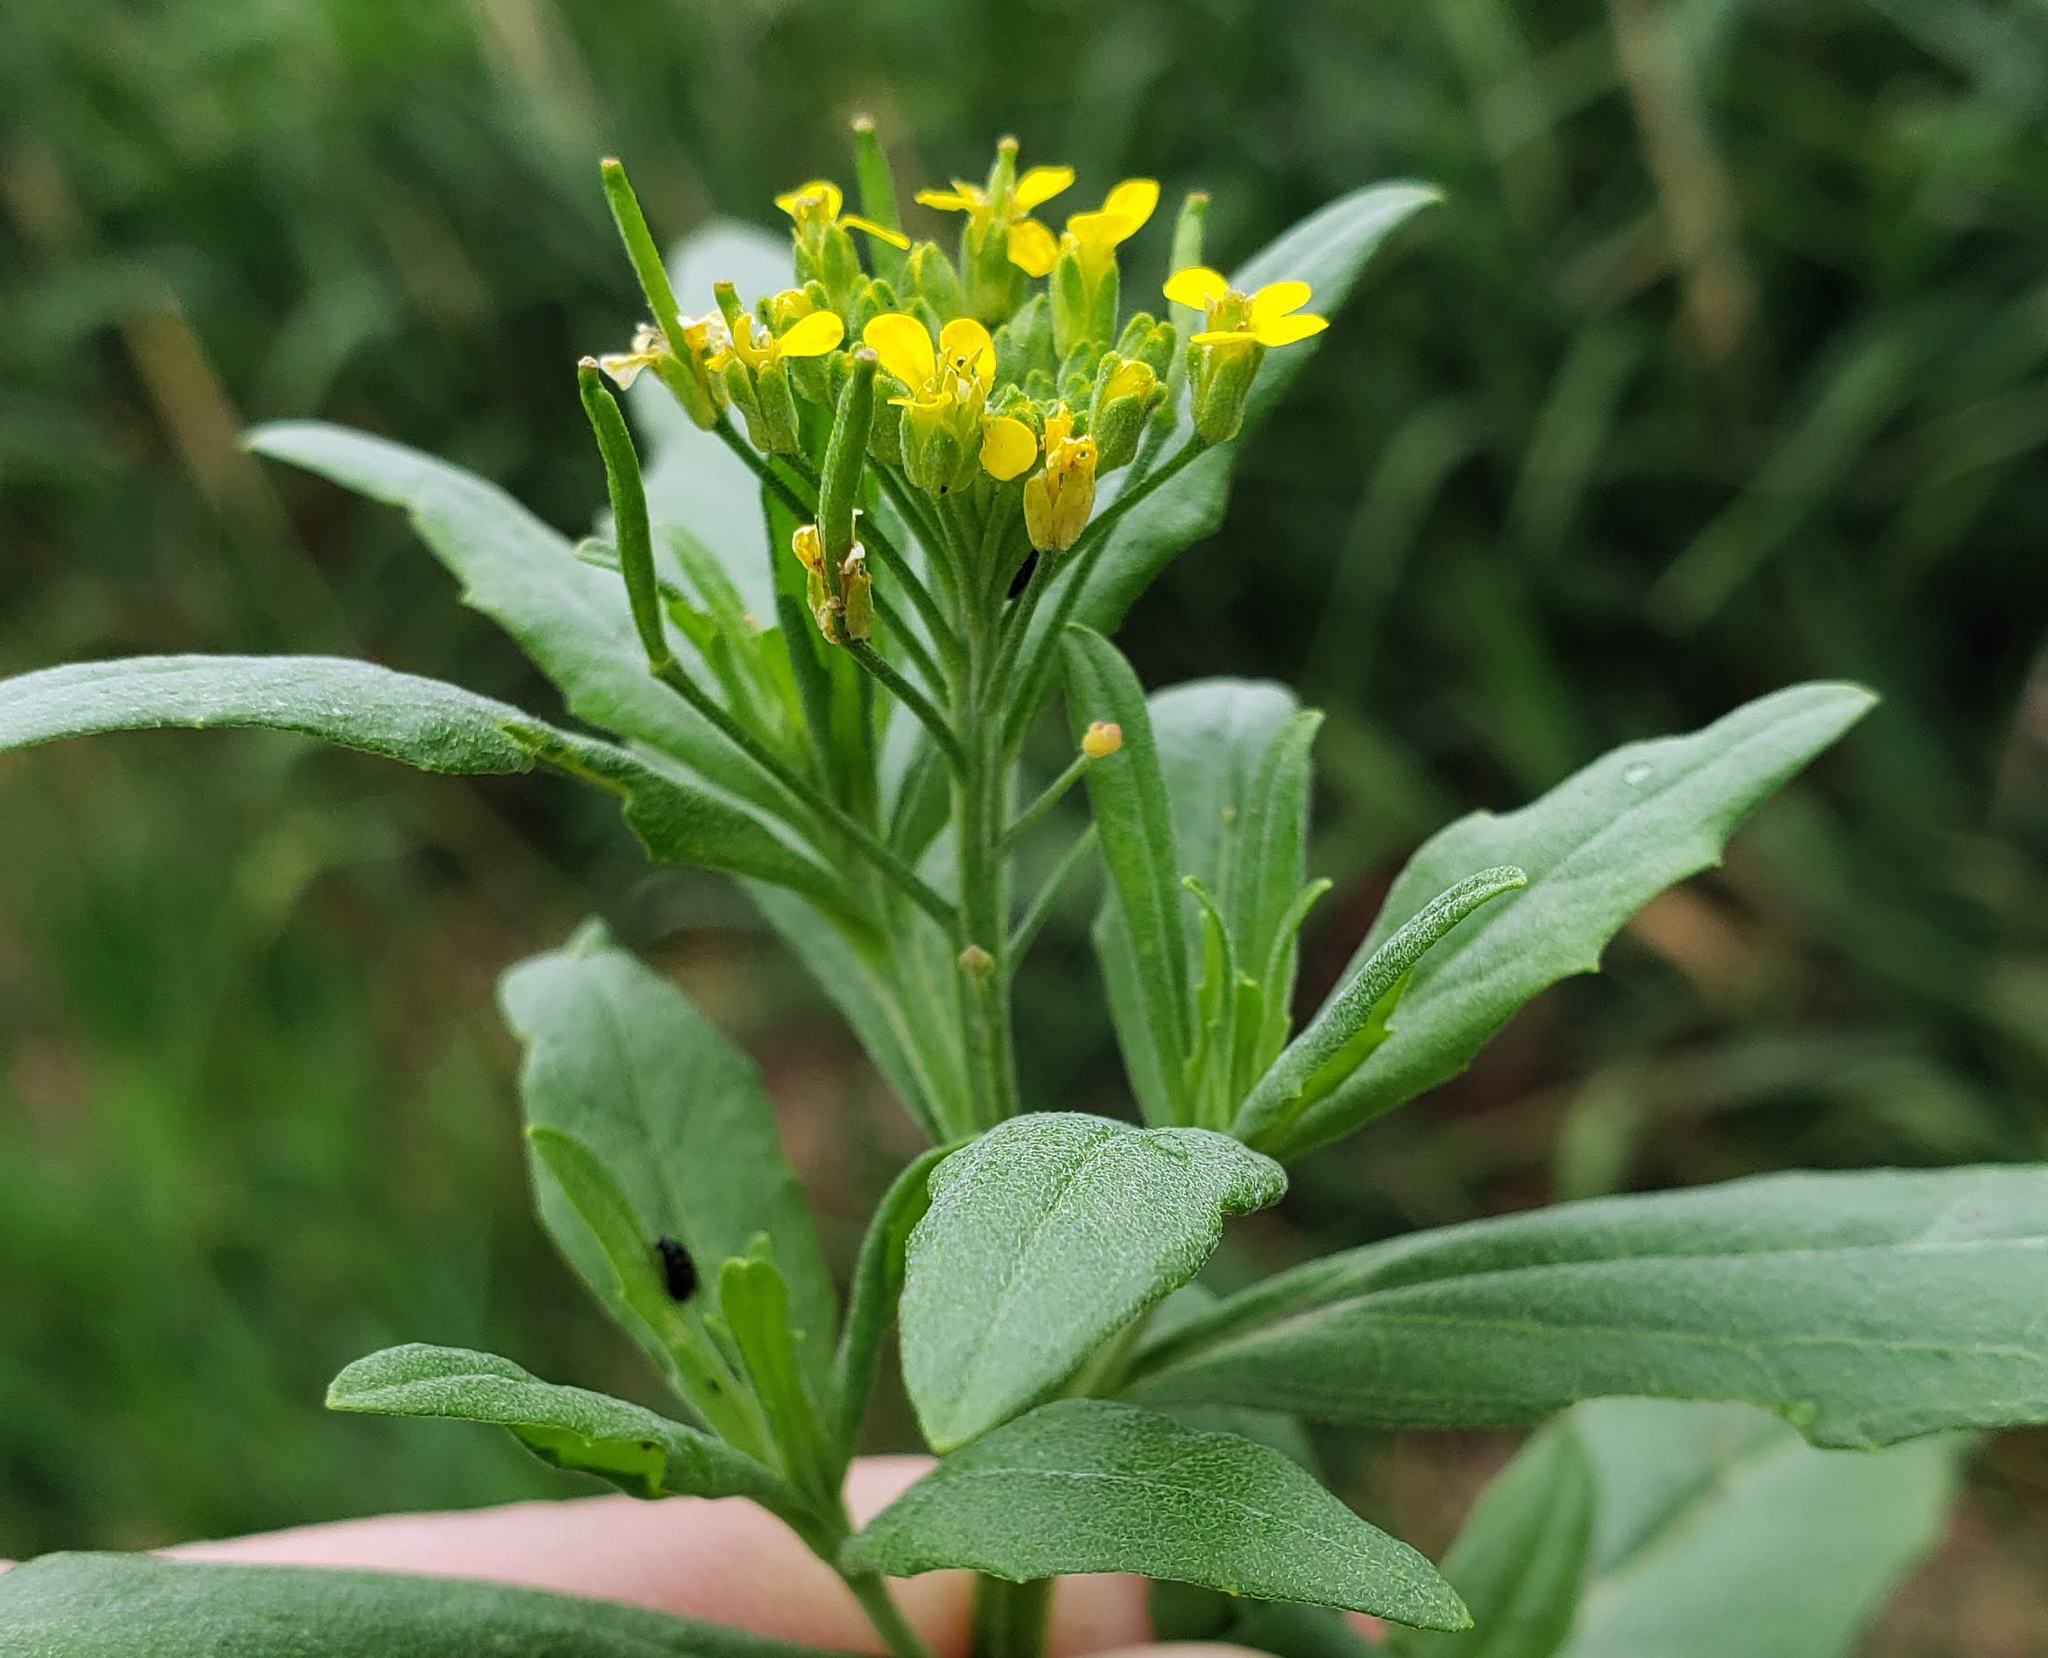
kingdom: Plantae
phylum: Tracheophyta
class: Magnoliopsida
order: Brassicales
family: Brassicaceae
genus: Erysimum
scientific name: Erysimum cheiranthoides
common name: Treacle mustard
